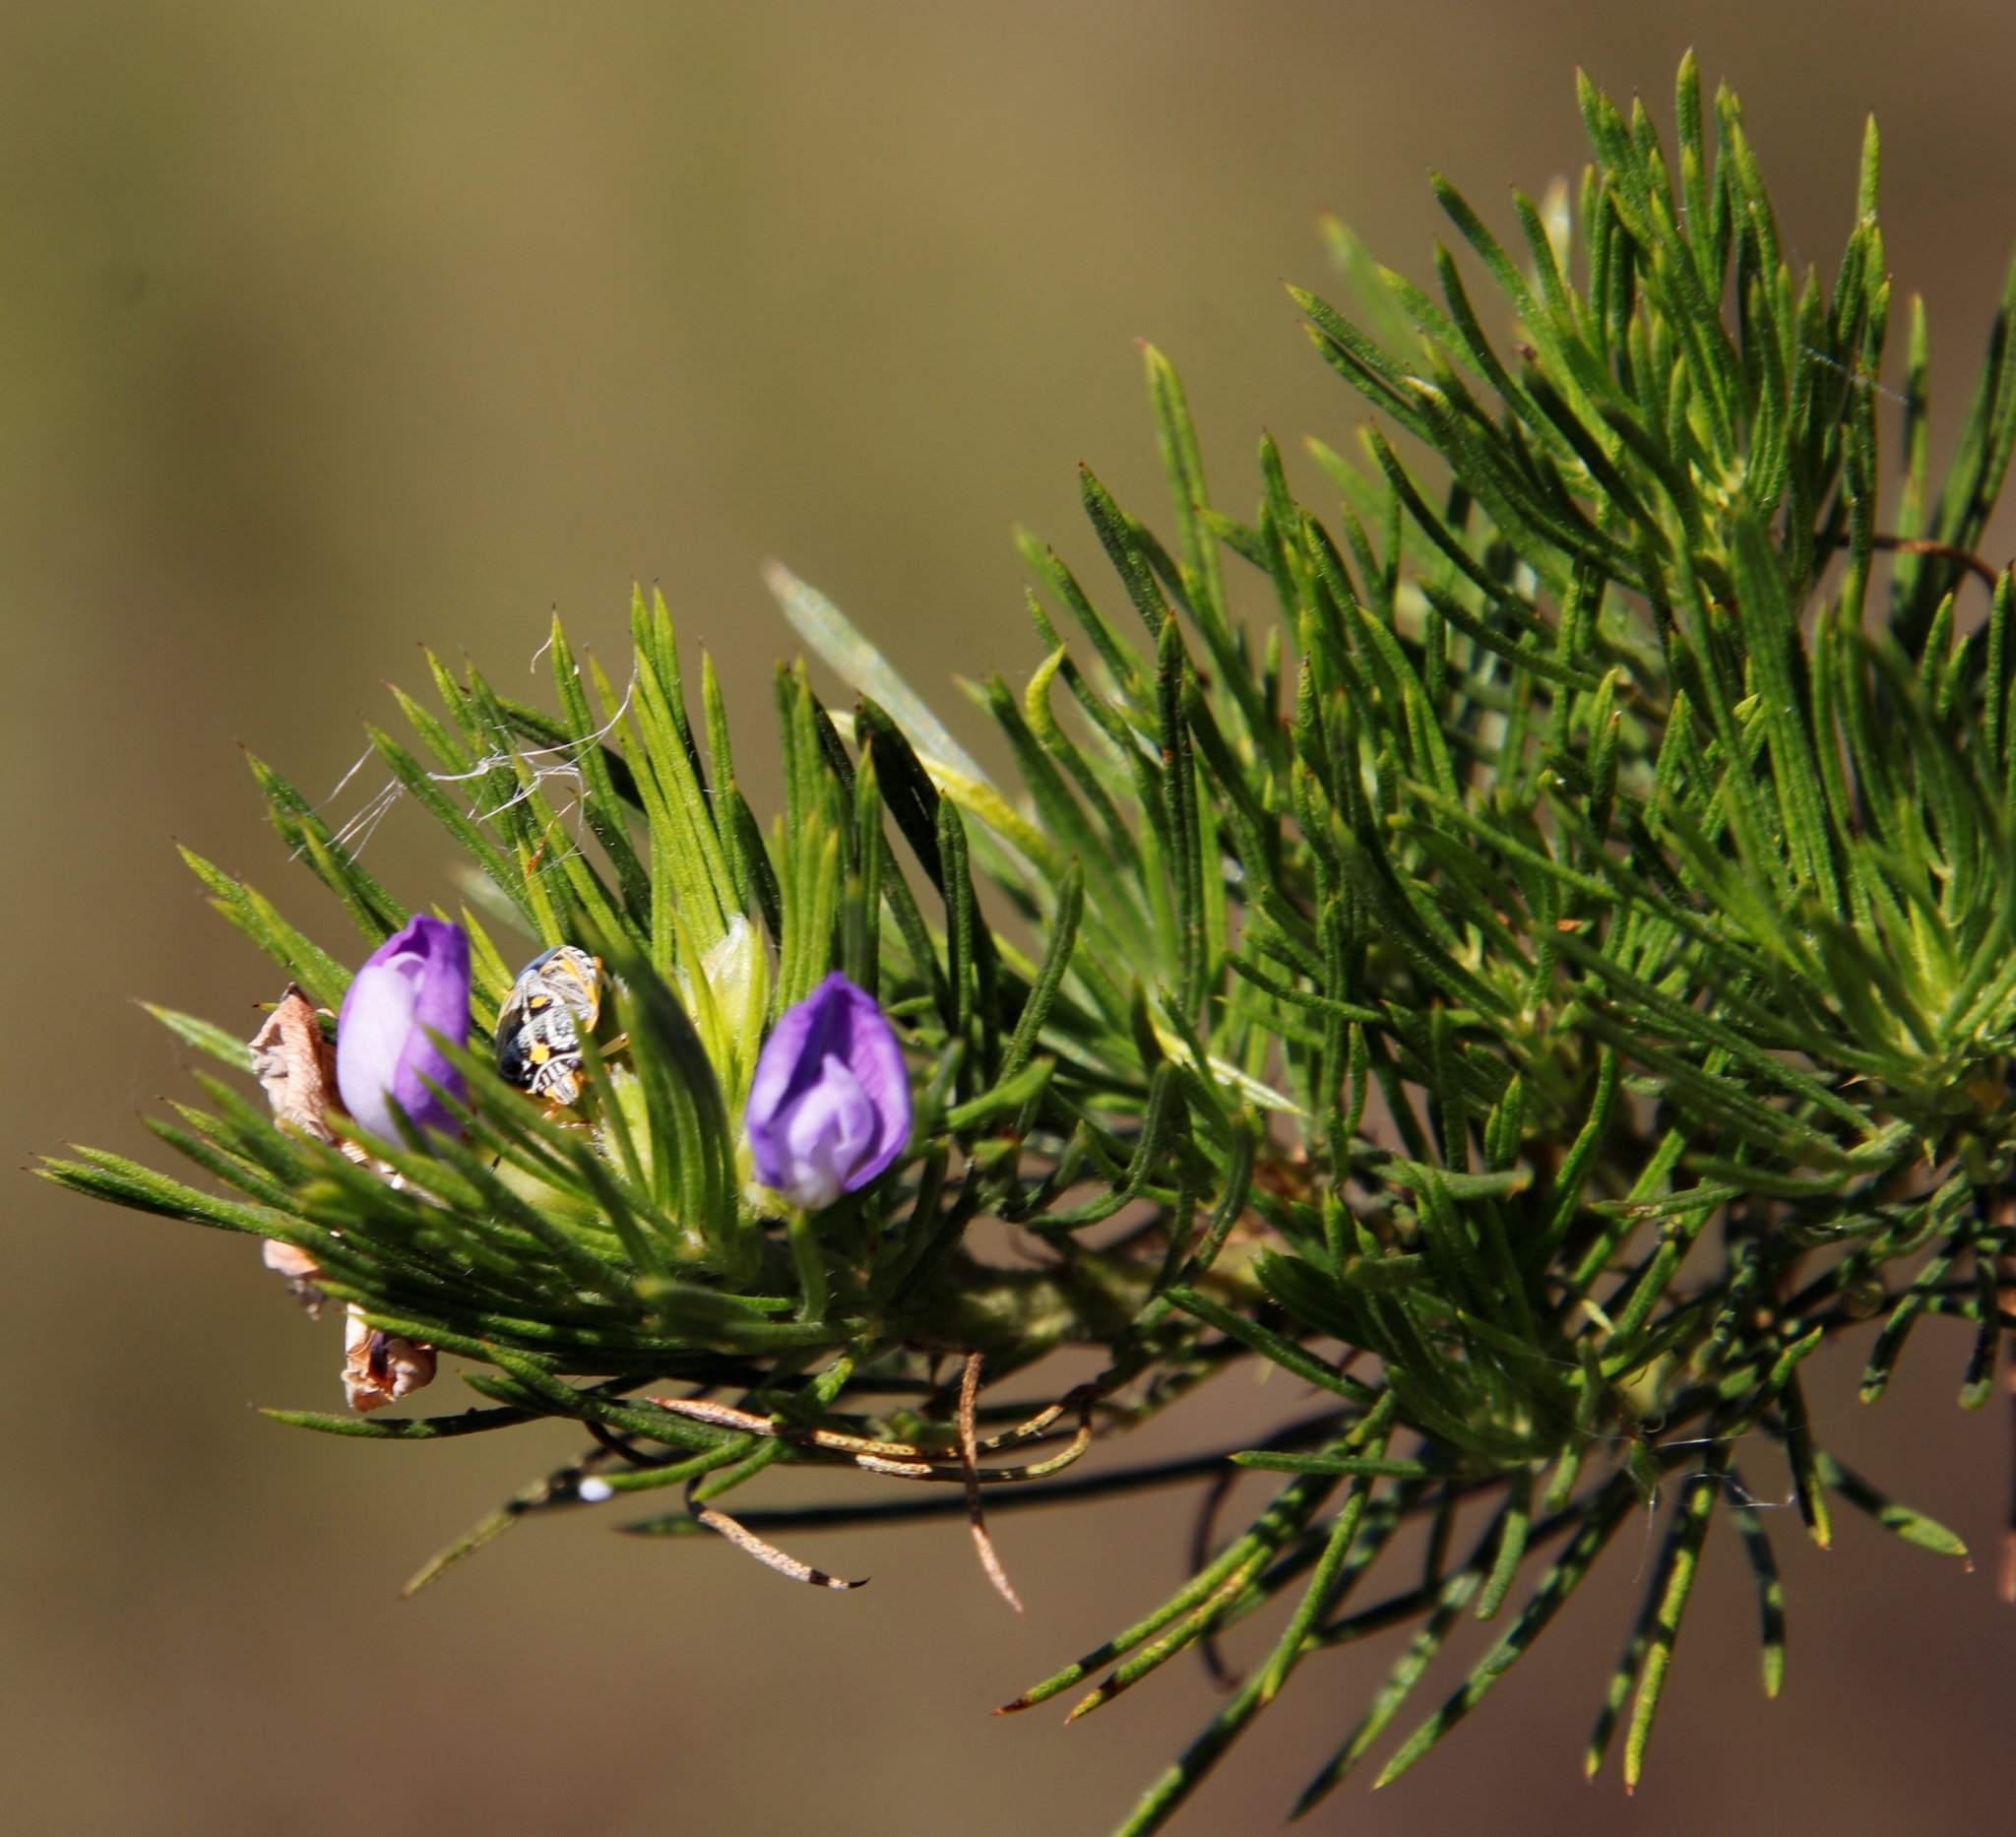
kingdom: Plantae
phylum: Tracheophyta
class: Magnoliopsida
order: Fabales
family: Fabaceae
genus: Psoralea
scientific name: Psoralea pinnata
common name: African scurfpea
